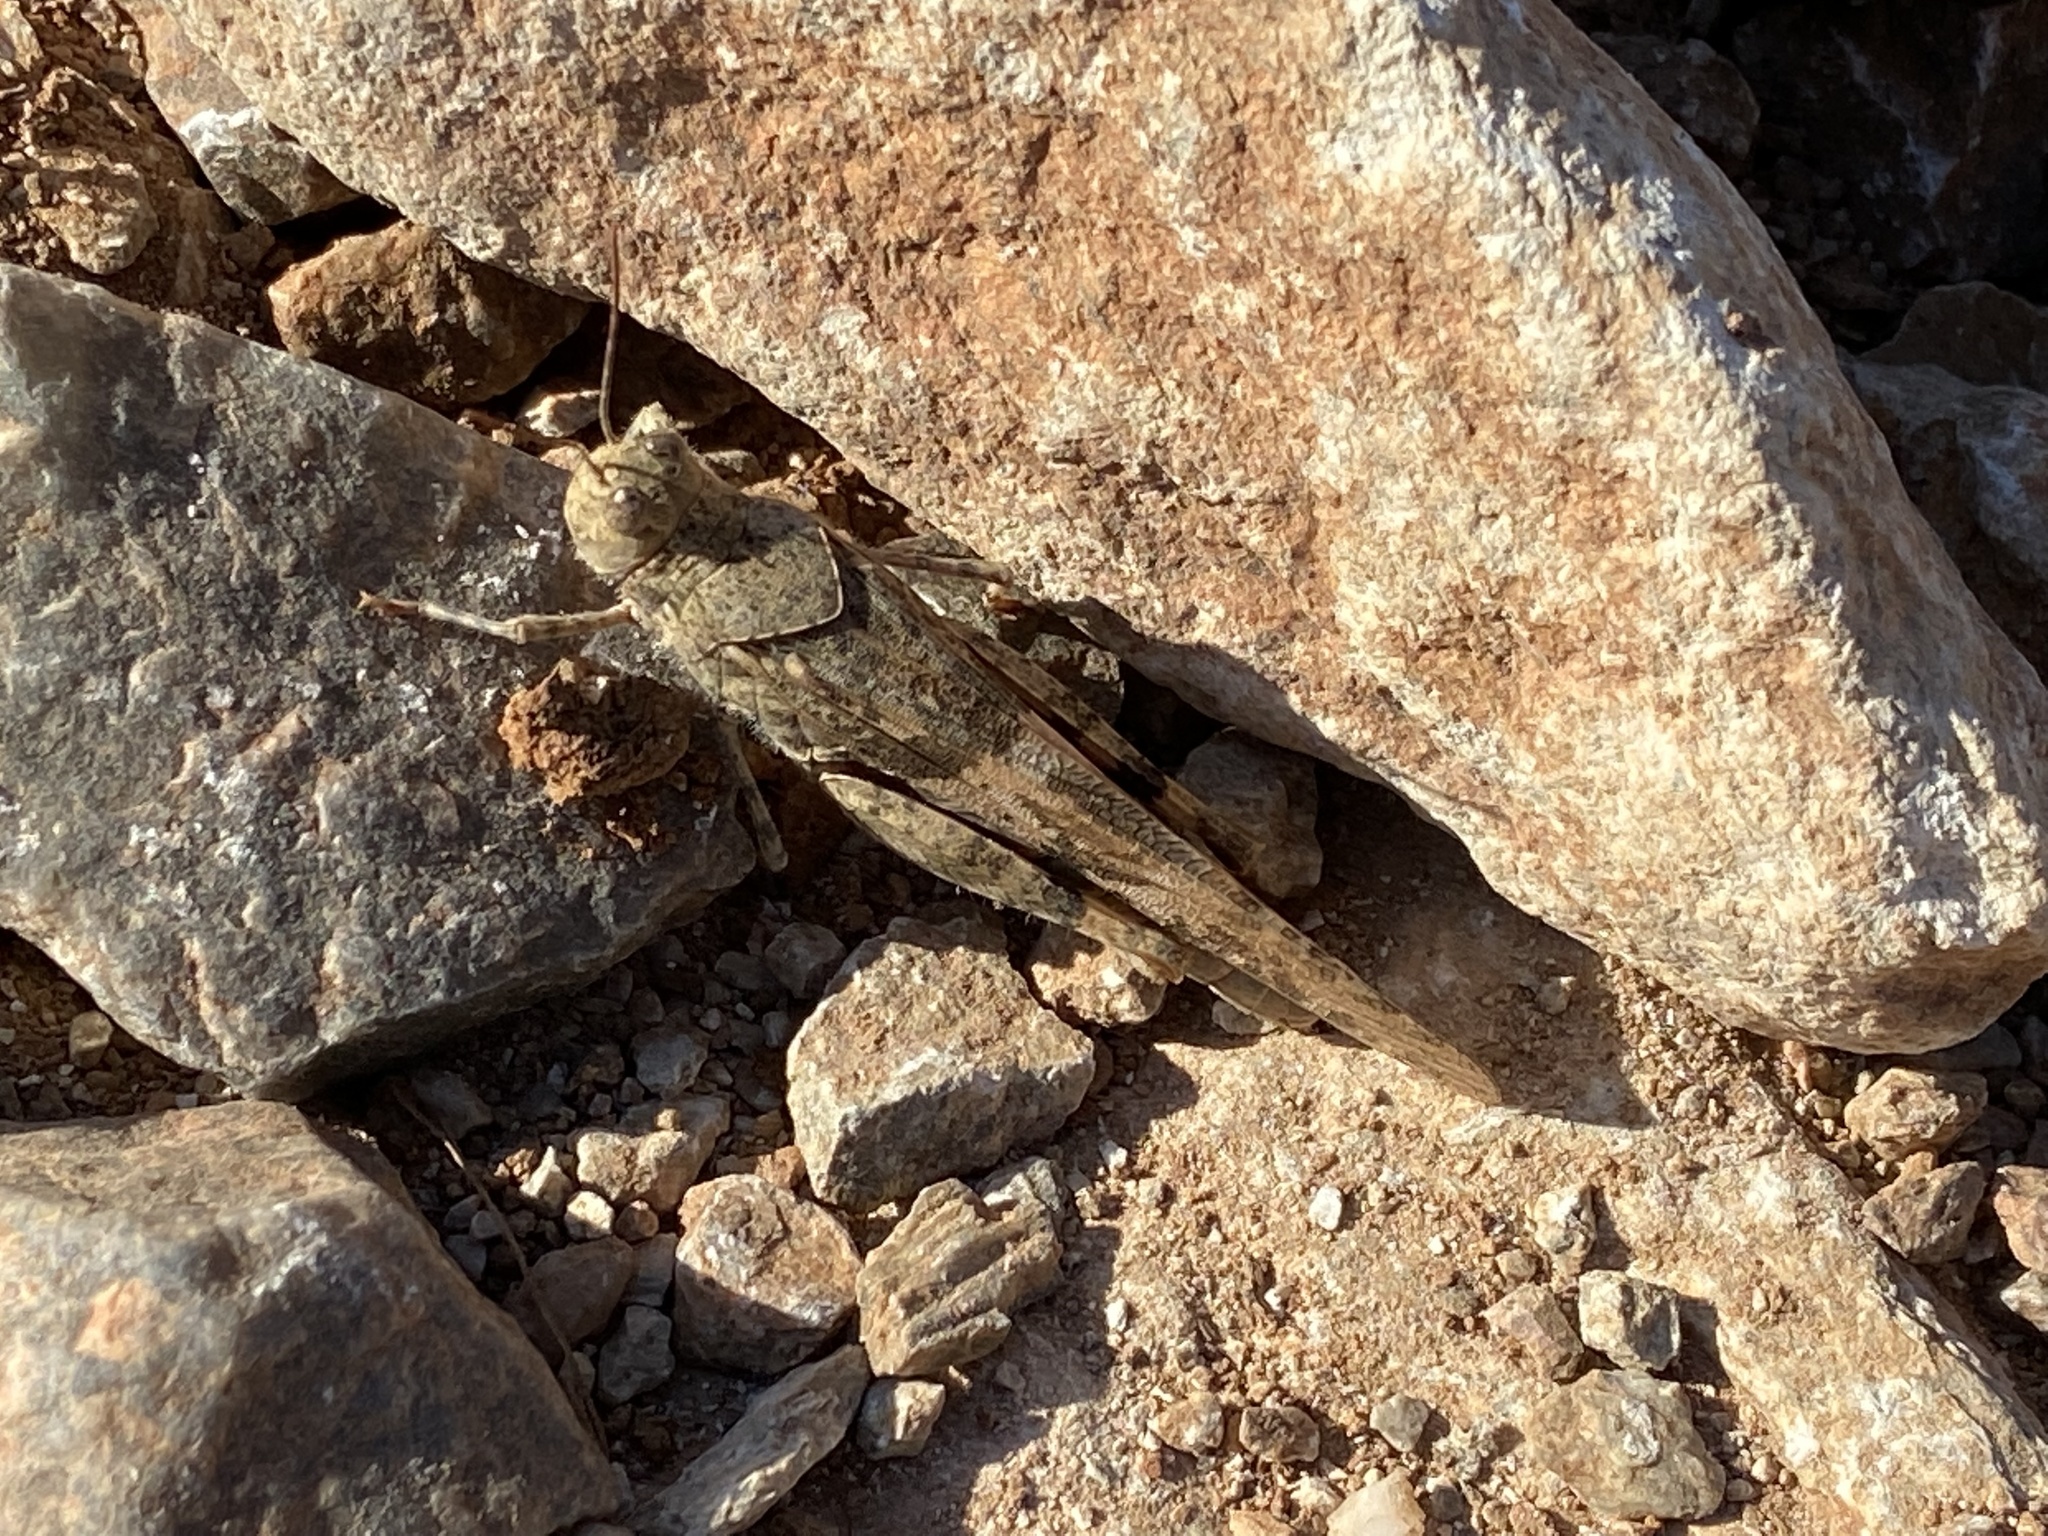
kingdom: Animalia
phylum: Arthropoda
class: Insecta
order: Orthoptera
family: Acrididae
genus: Trimerotropis
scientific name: Trimerotropis pallidipennis
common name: Pallid-winged grasshopper
